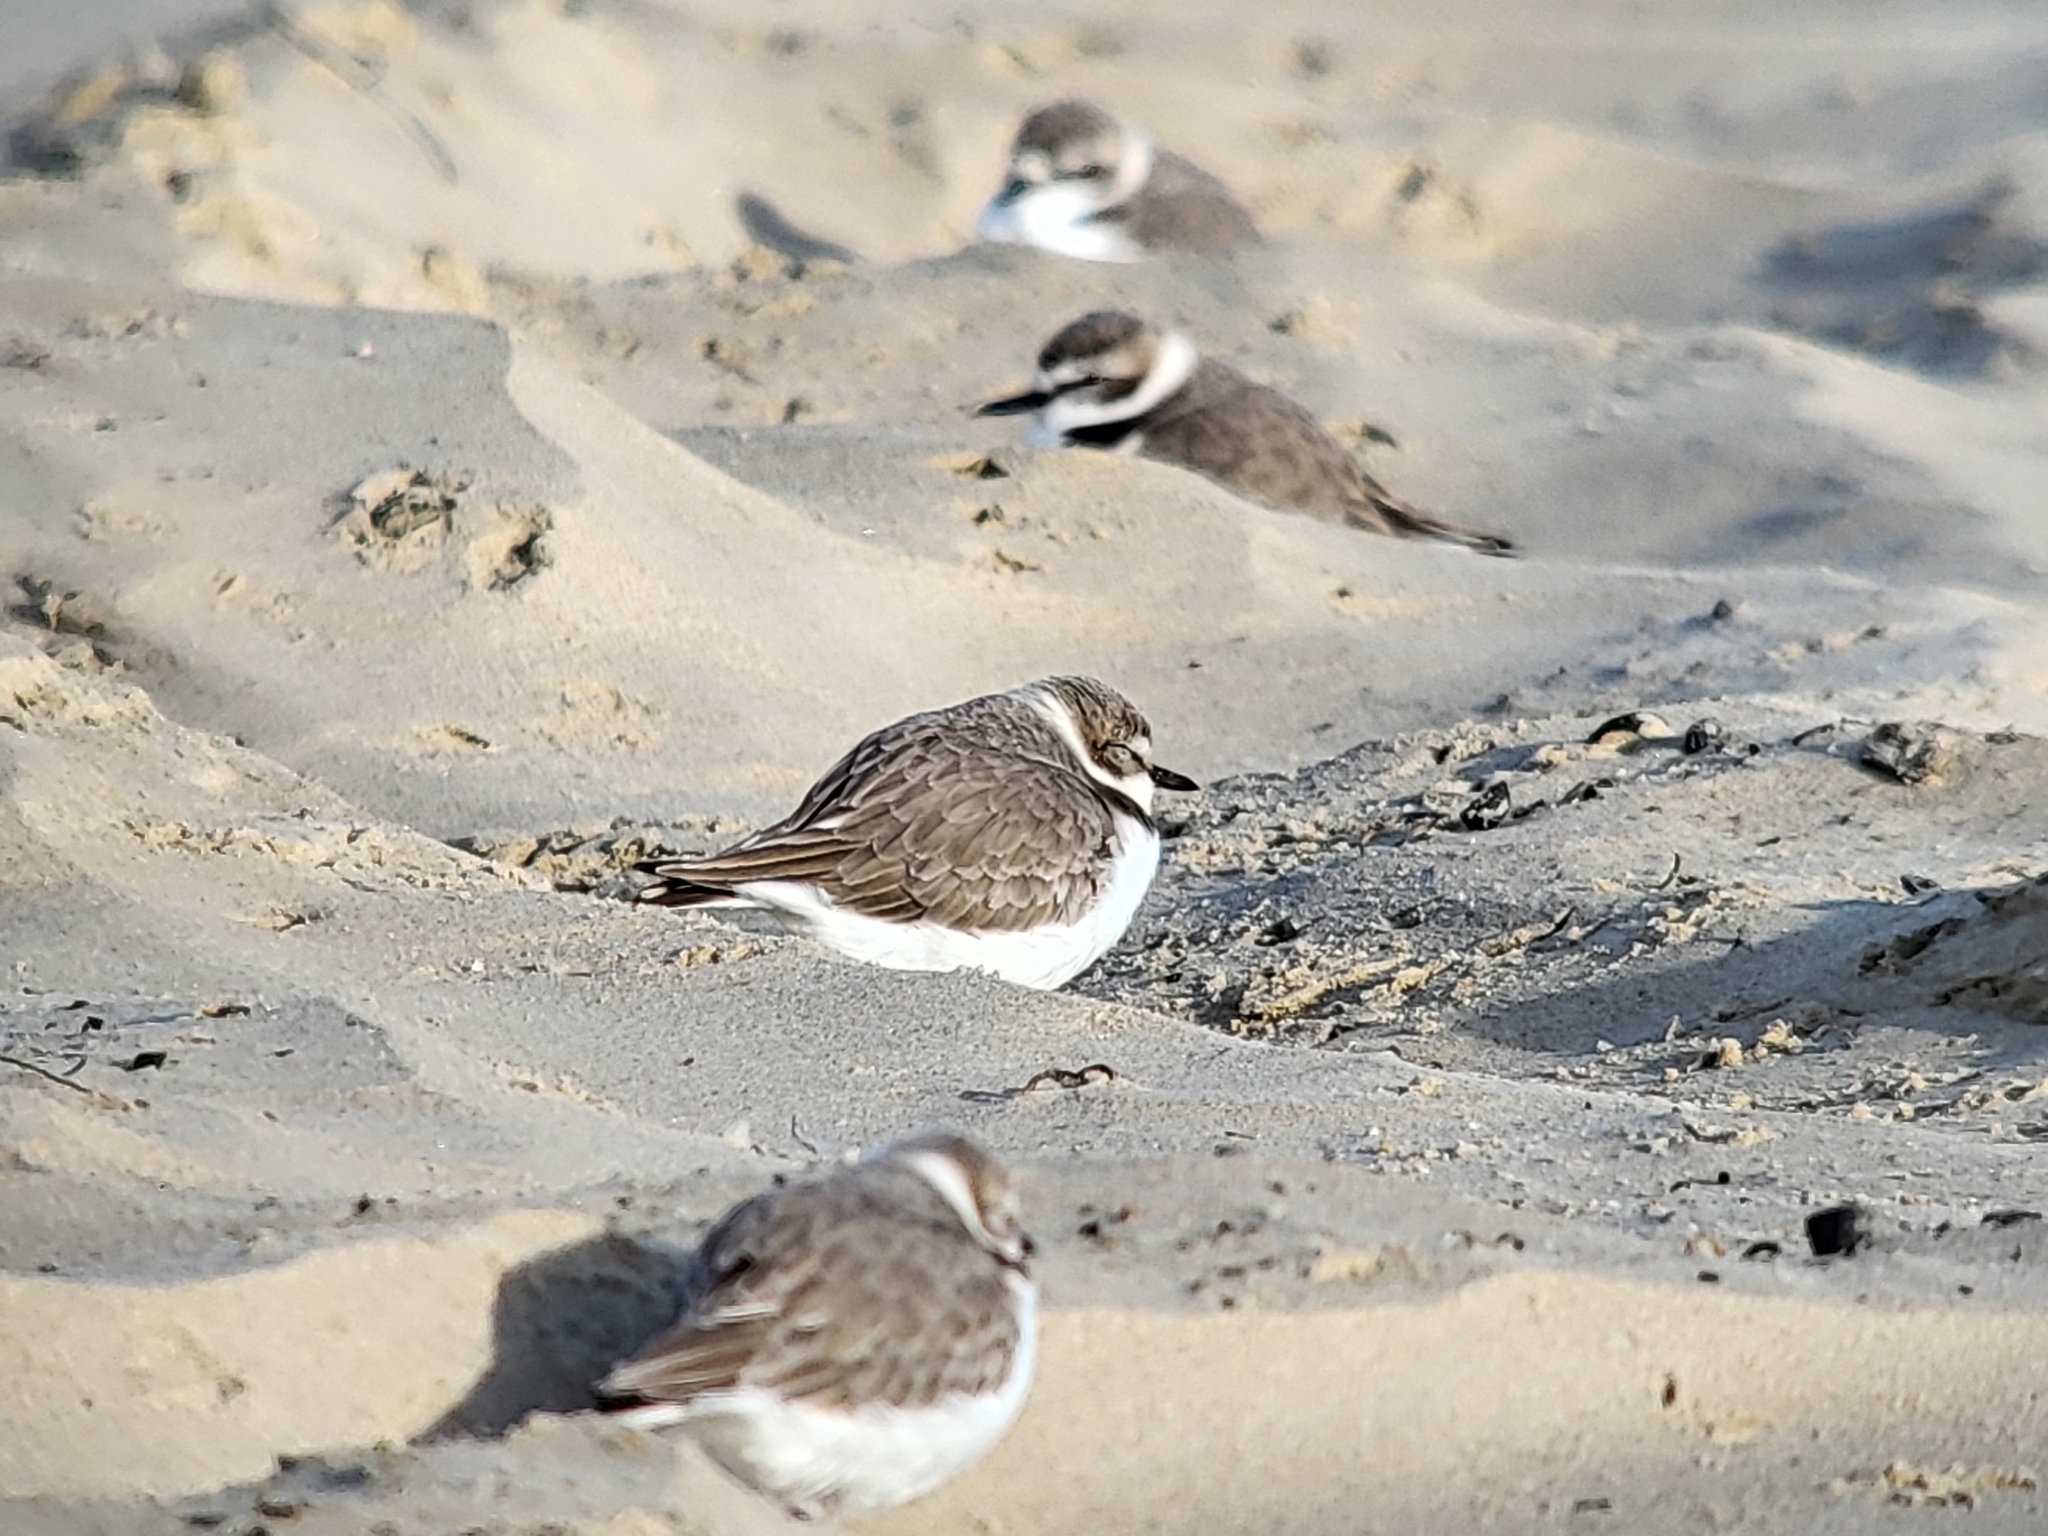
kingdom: Animalia
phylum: Chordata
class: Aves
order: Charadriiformes
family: Charadriidae
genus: Anarhynchus
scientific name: Anarhynchus
